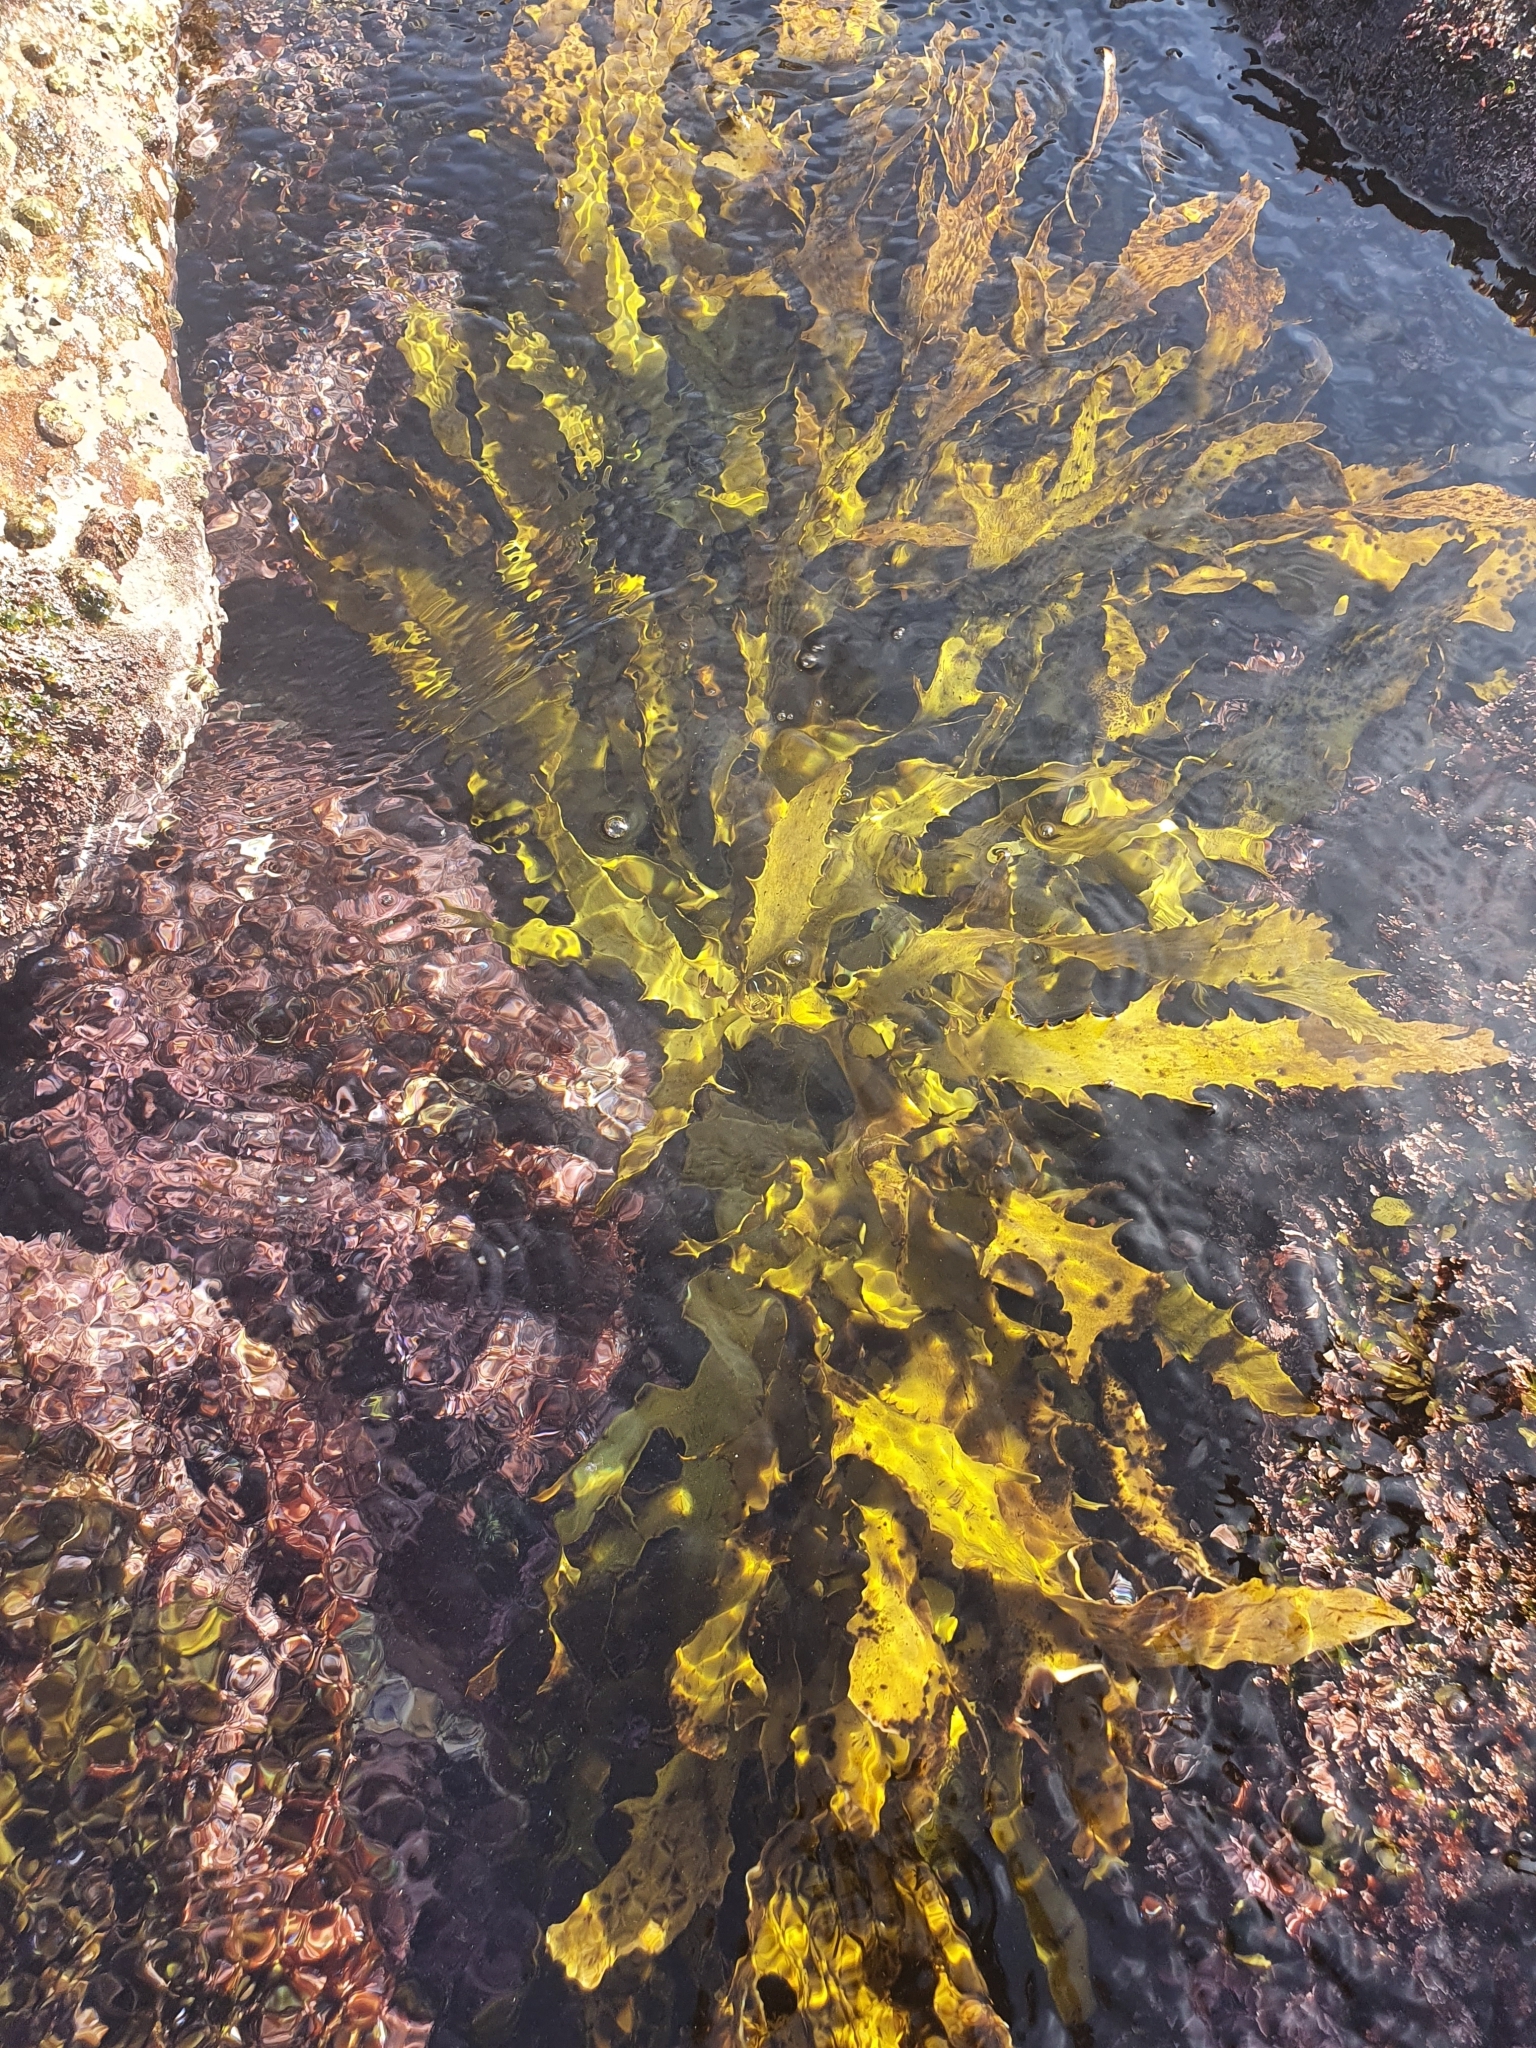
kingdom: Chromista
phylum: Ochrophyta
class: Phaeophyceae
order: Laminariales
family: Lessoniaceae
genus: Ecklonia
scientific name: Ecklonia radiata
